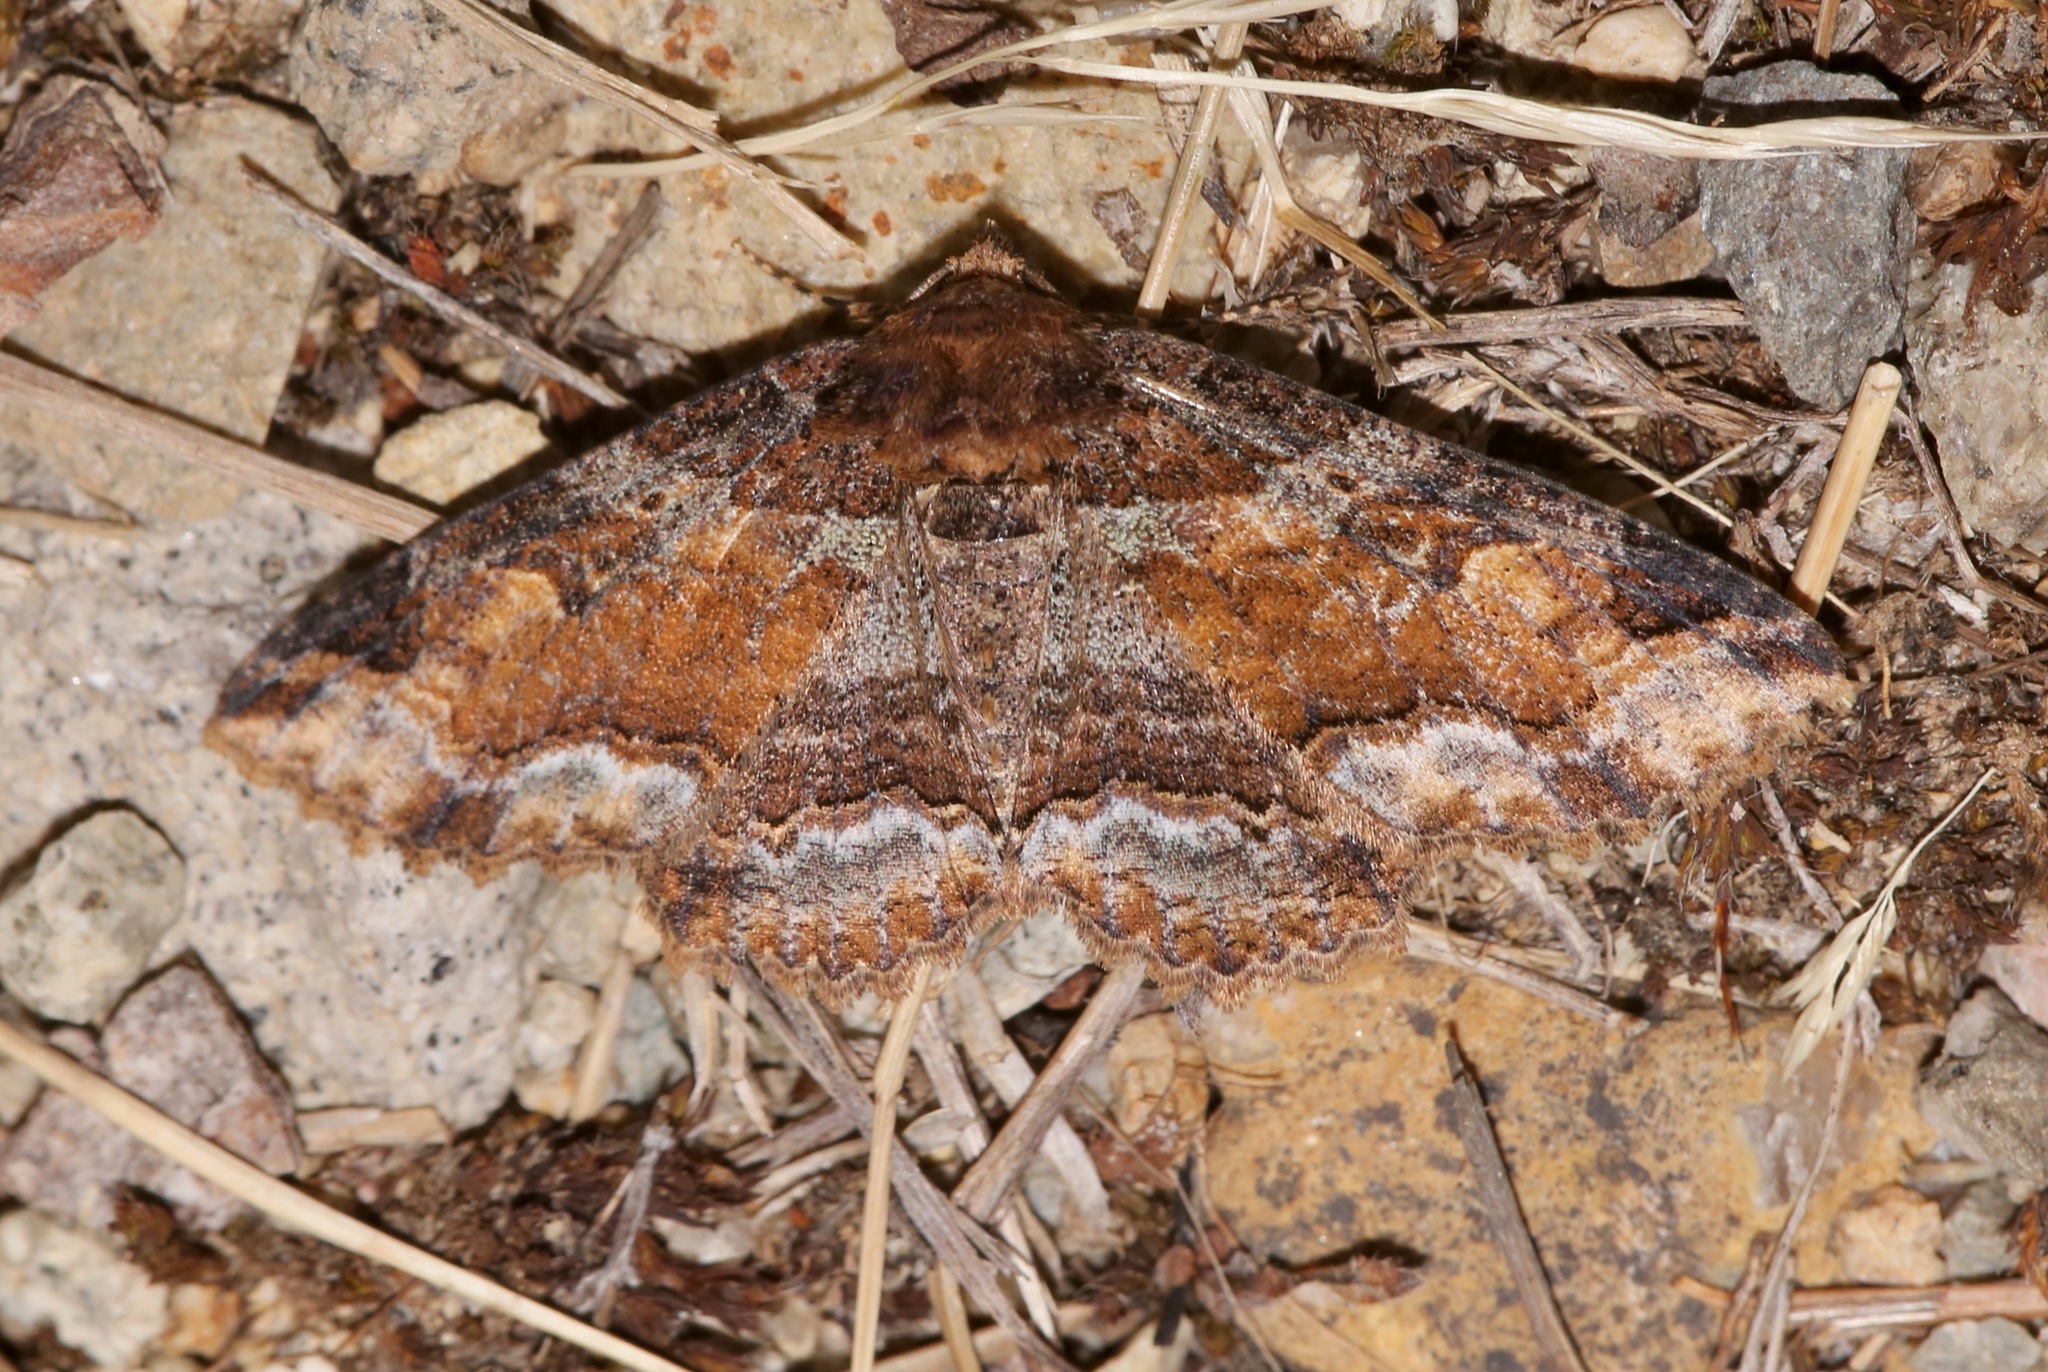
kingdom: Animalia
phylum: Arthropoda
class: Insecta
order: Lepidoptera
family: Erebidae
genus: Zale
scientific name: Zale minerea
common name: Colorful zale moth
